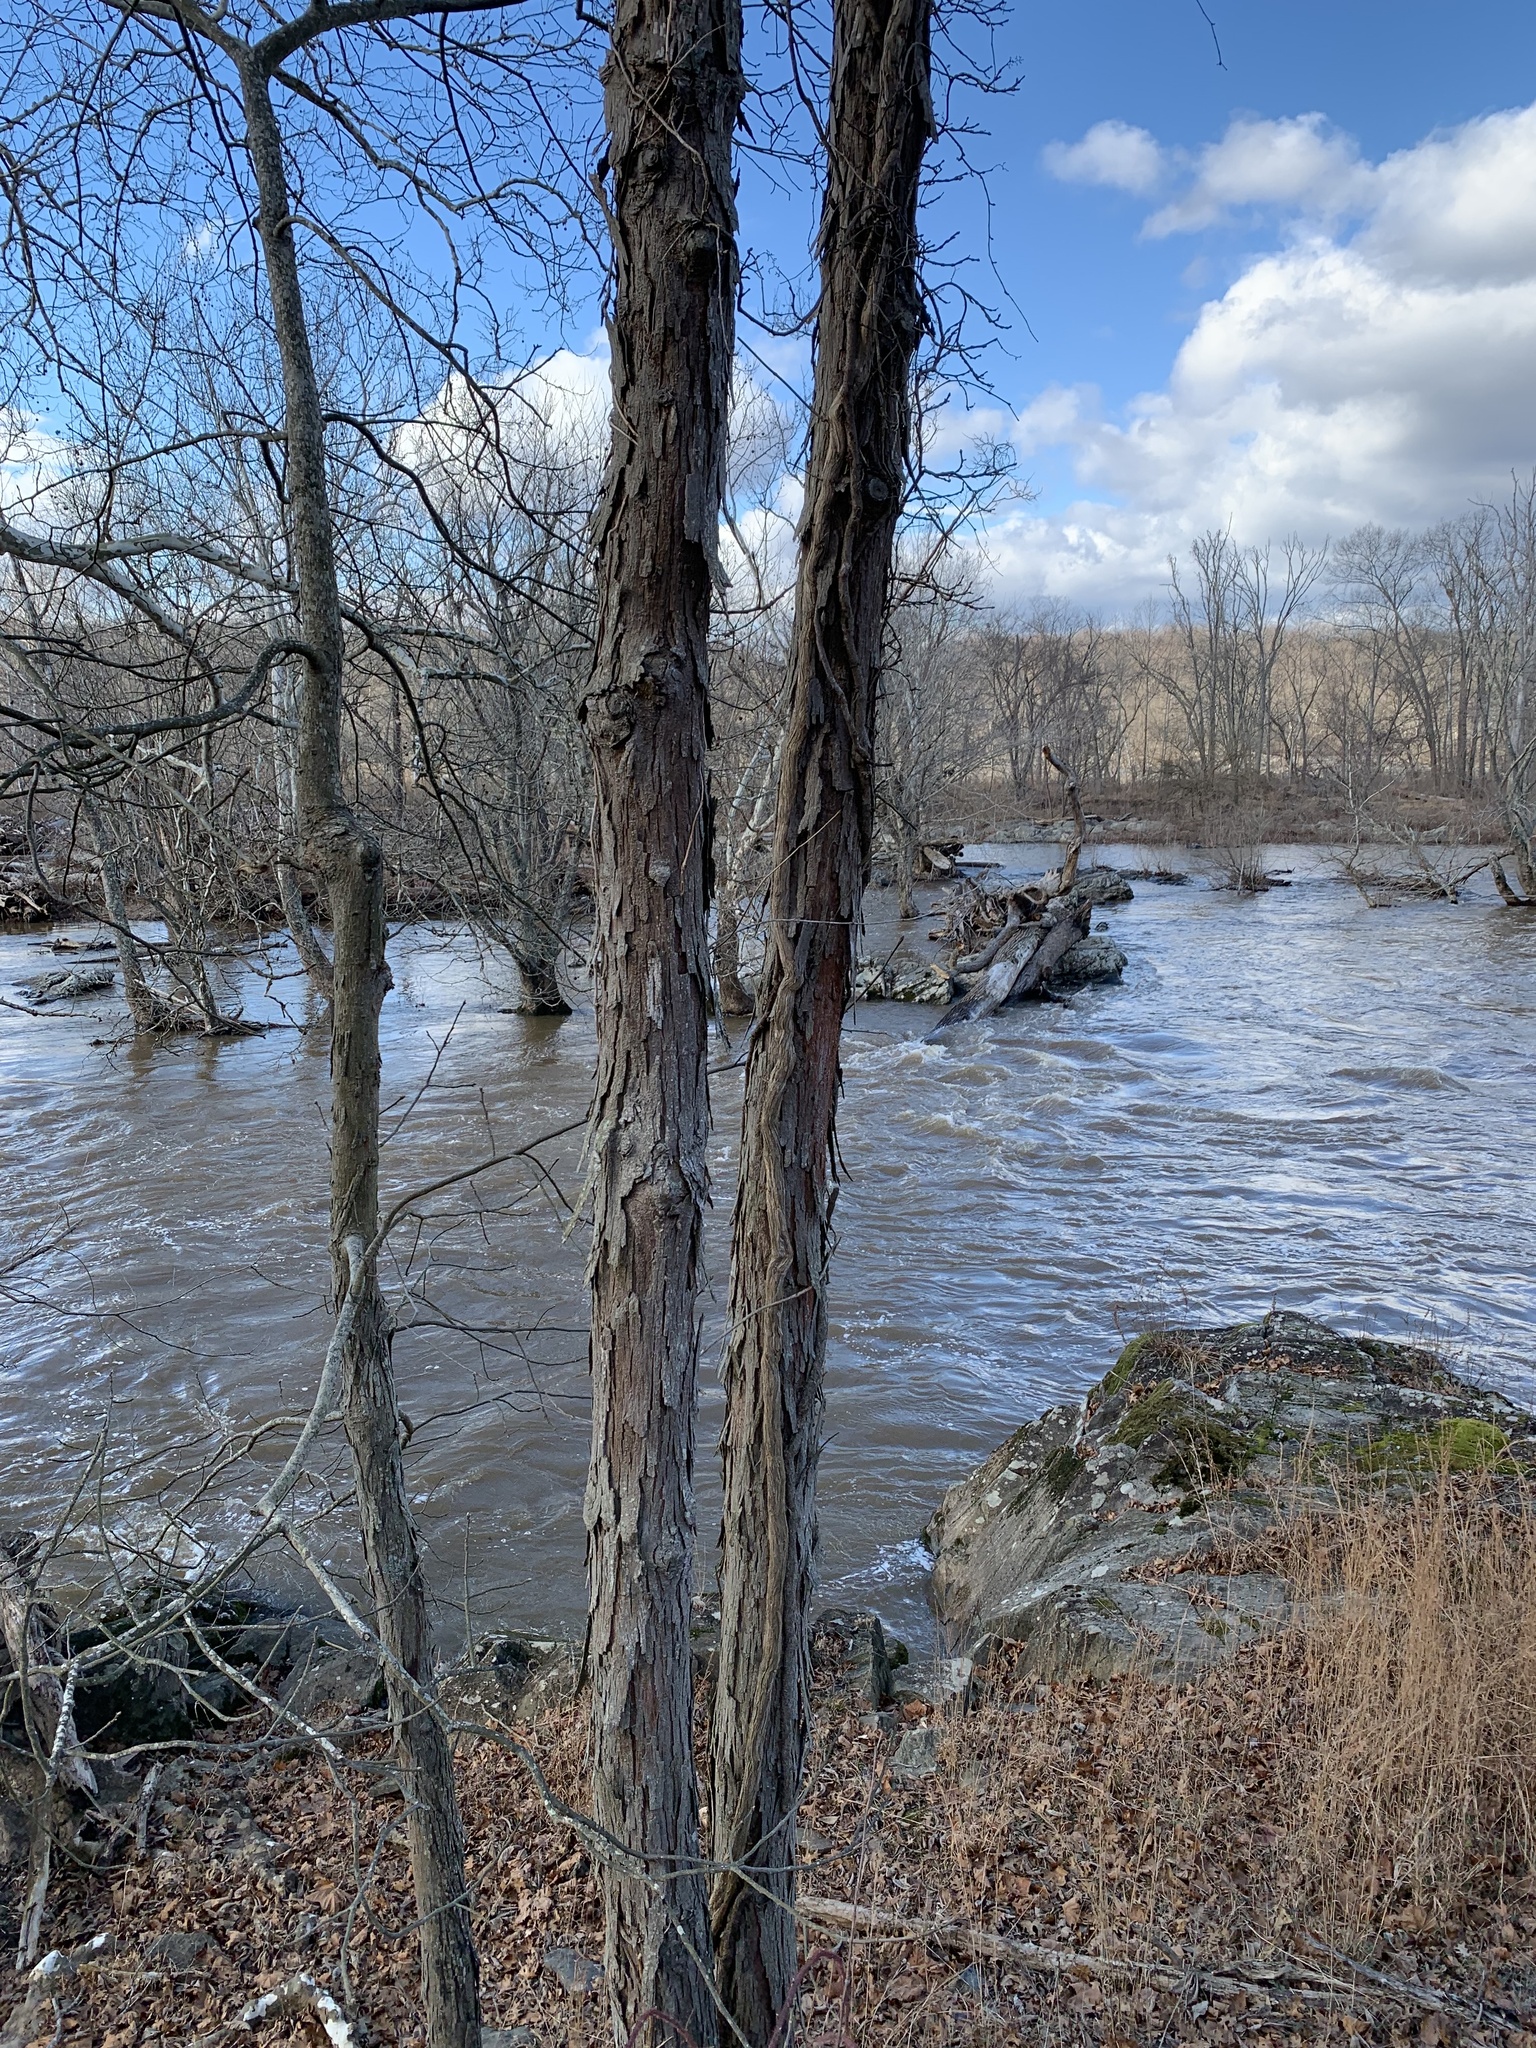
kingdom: Plantae
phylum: Tracheophyta
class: Magnoliopsida
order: Fagales
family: Juglandaceae
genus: Carya
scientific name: Carya ovata
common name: Shagbark hickory
